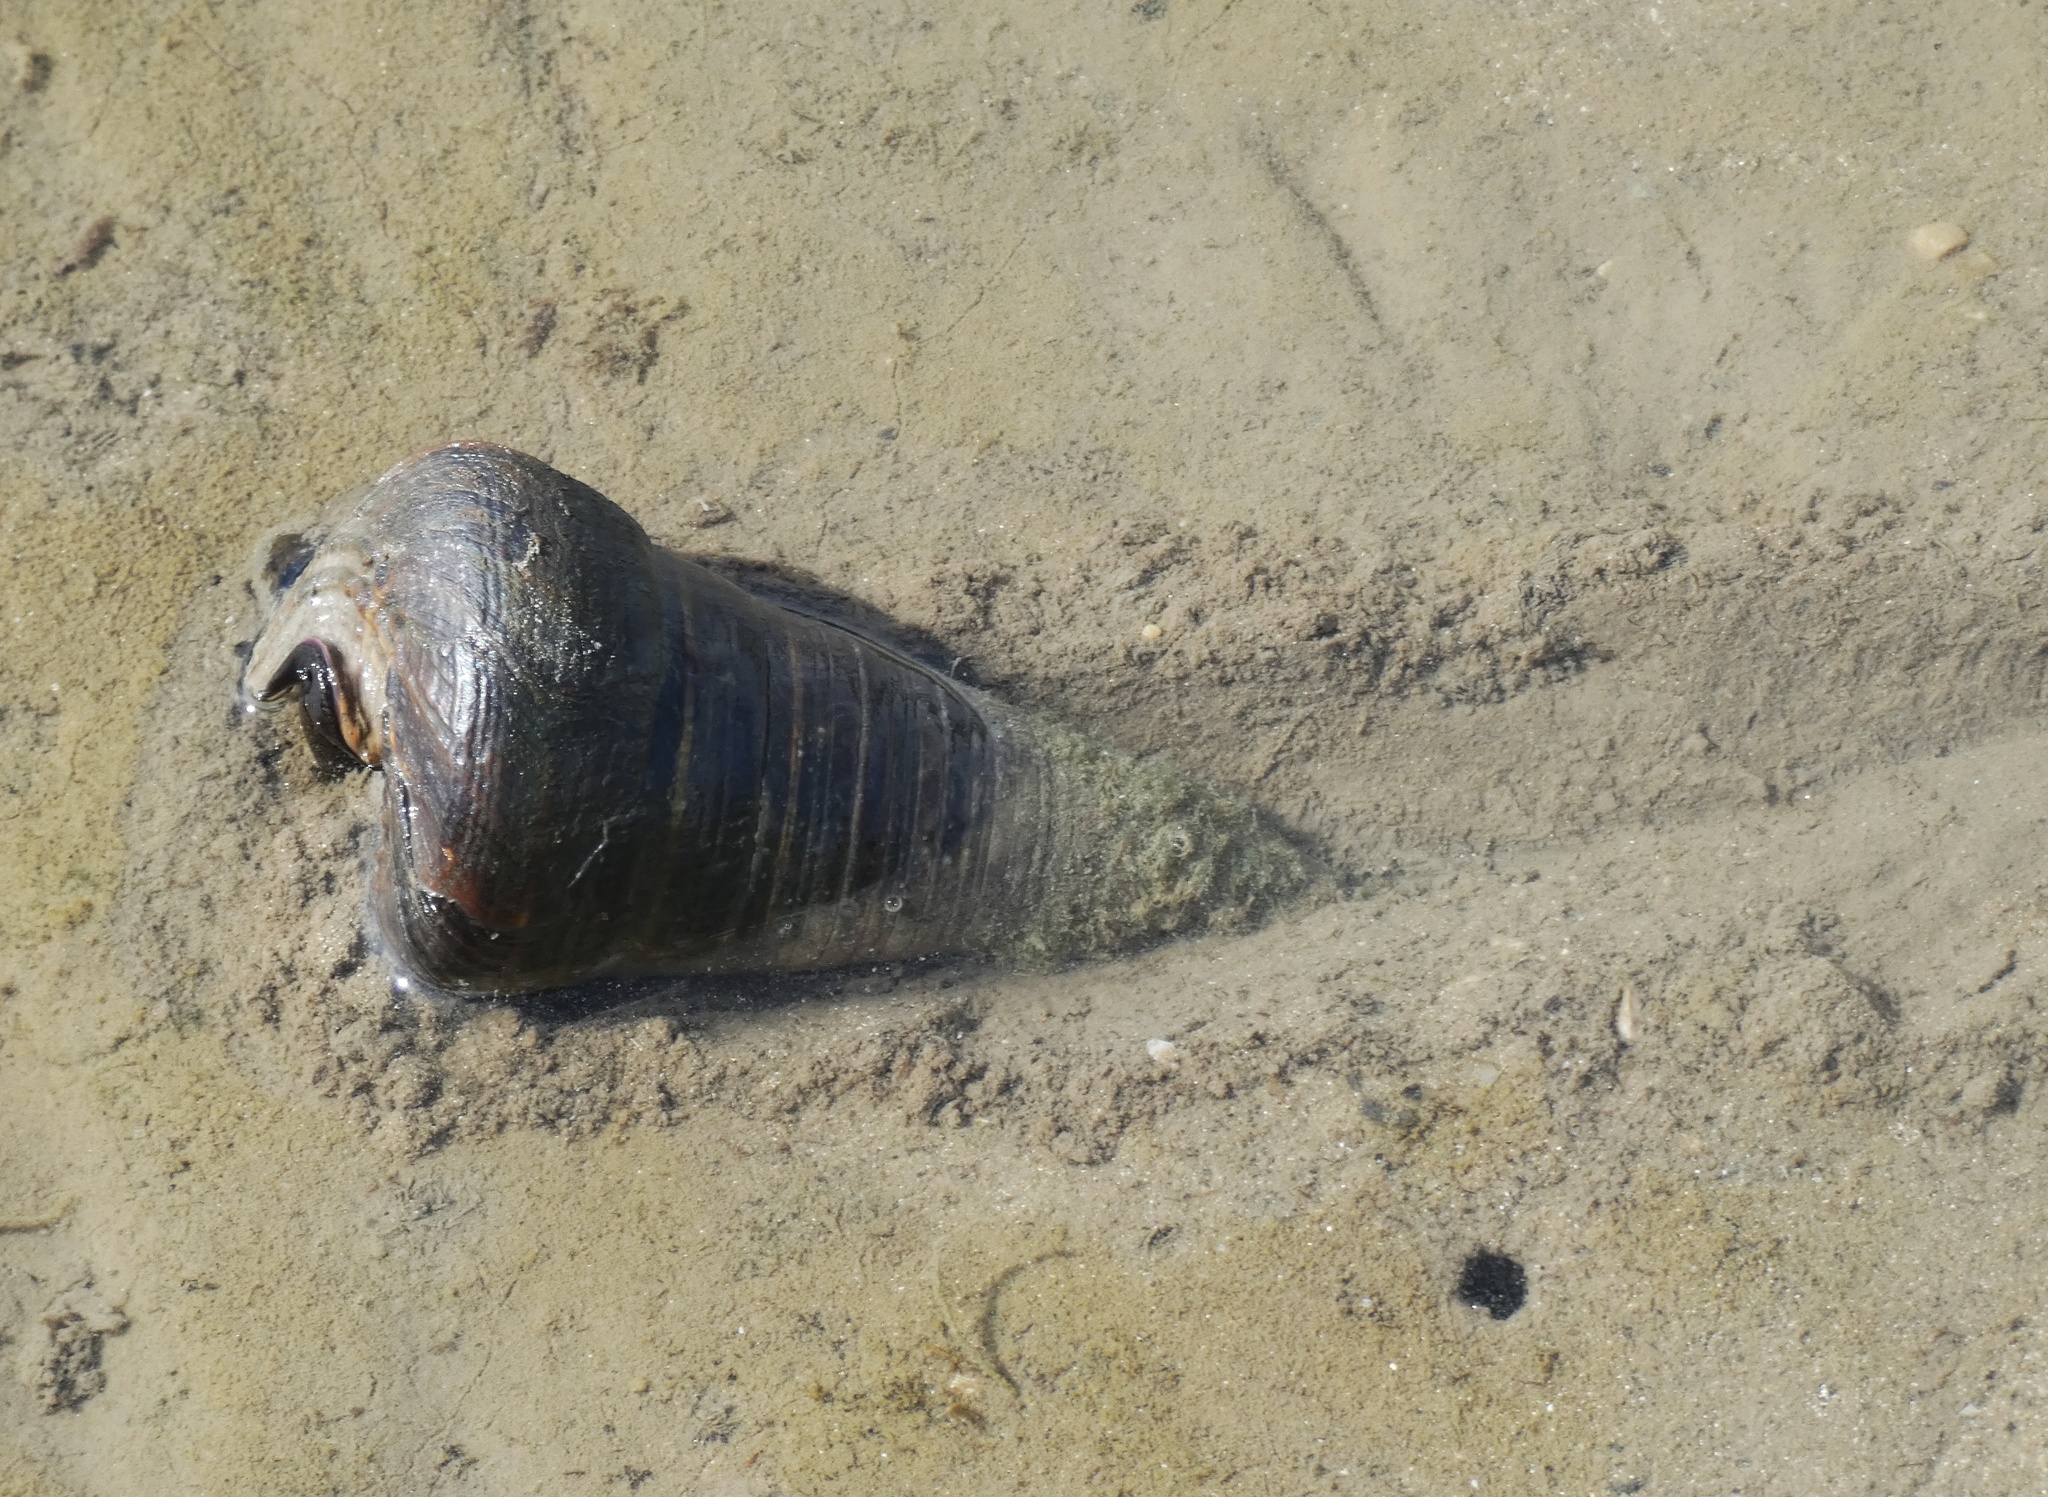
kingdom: Animalia
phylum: Mollusca
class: Gastropoda
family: Potamididae
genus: Telescopium
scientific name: Telescopium telescopium
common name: Telescope creeper
